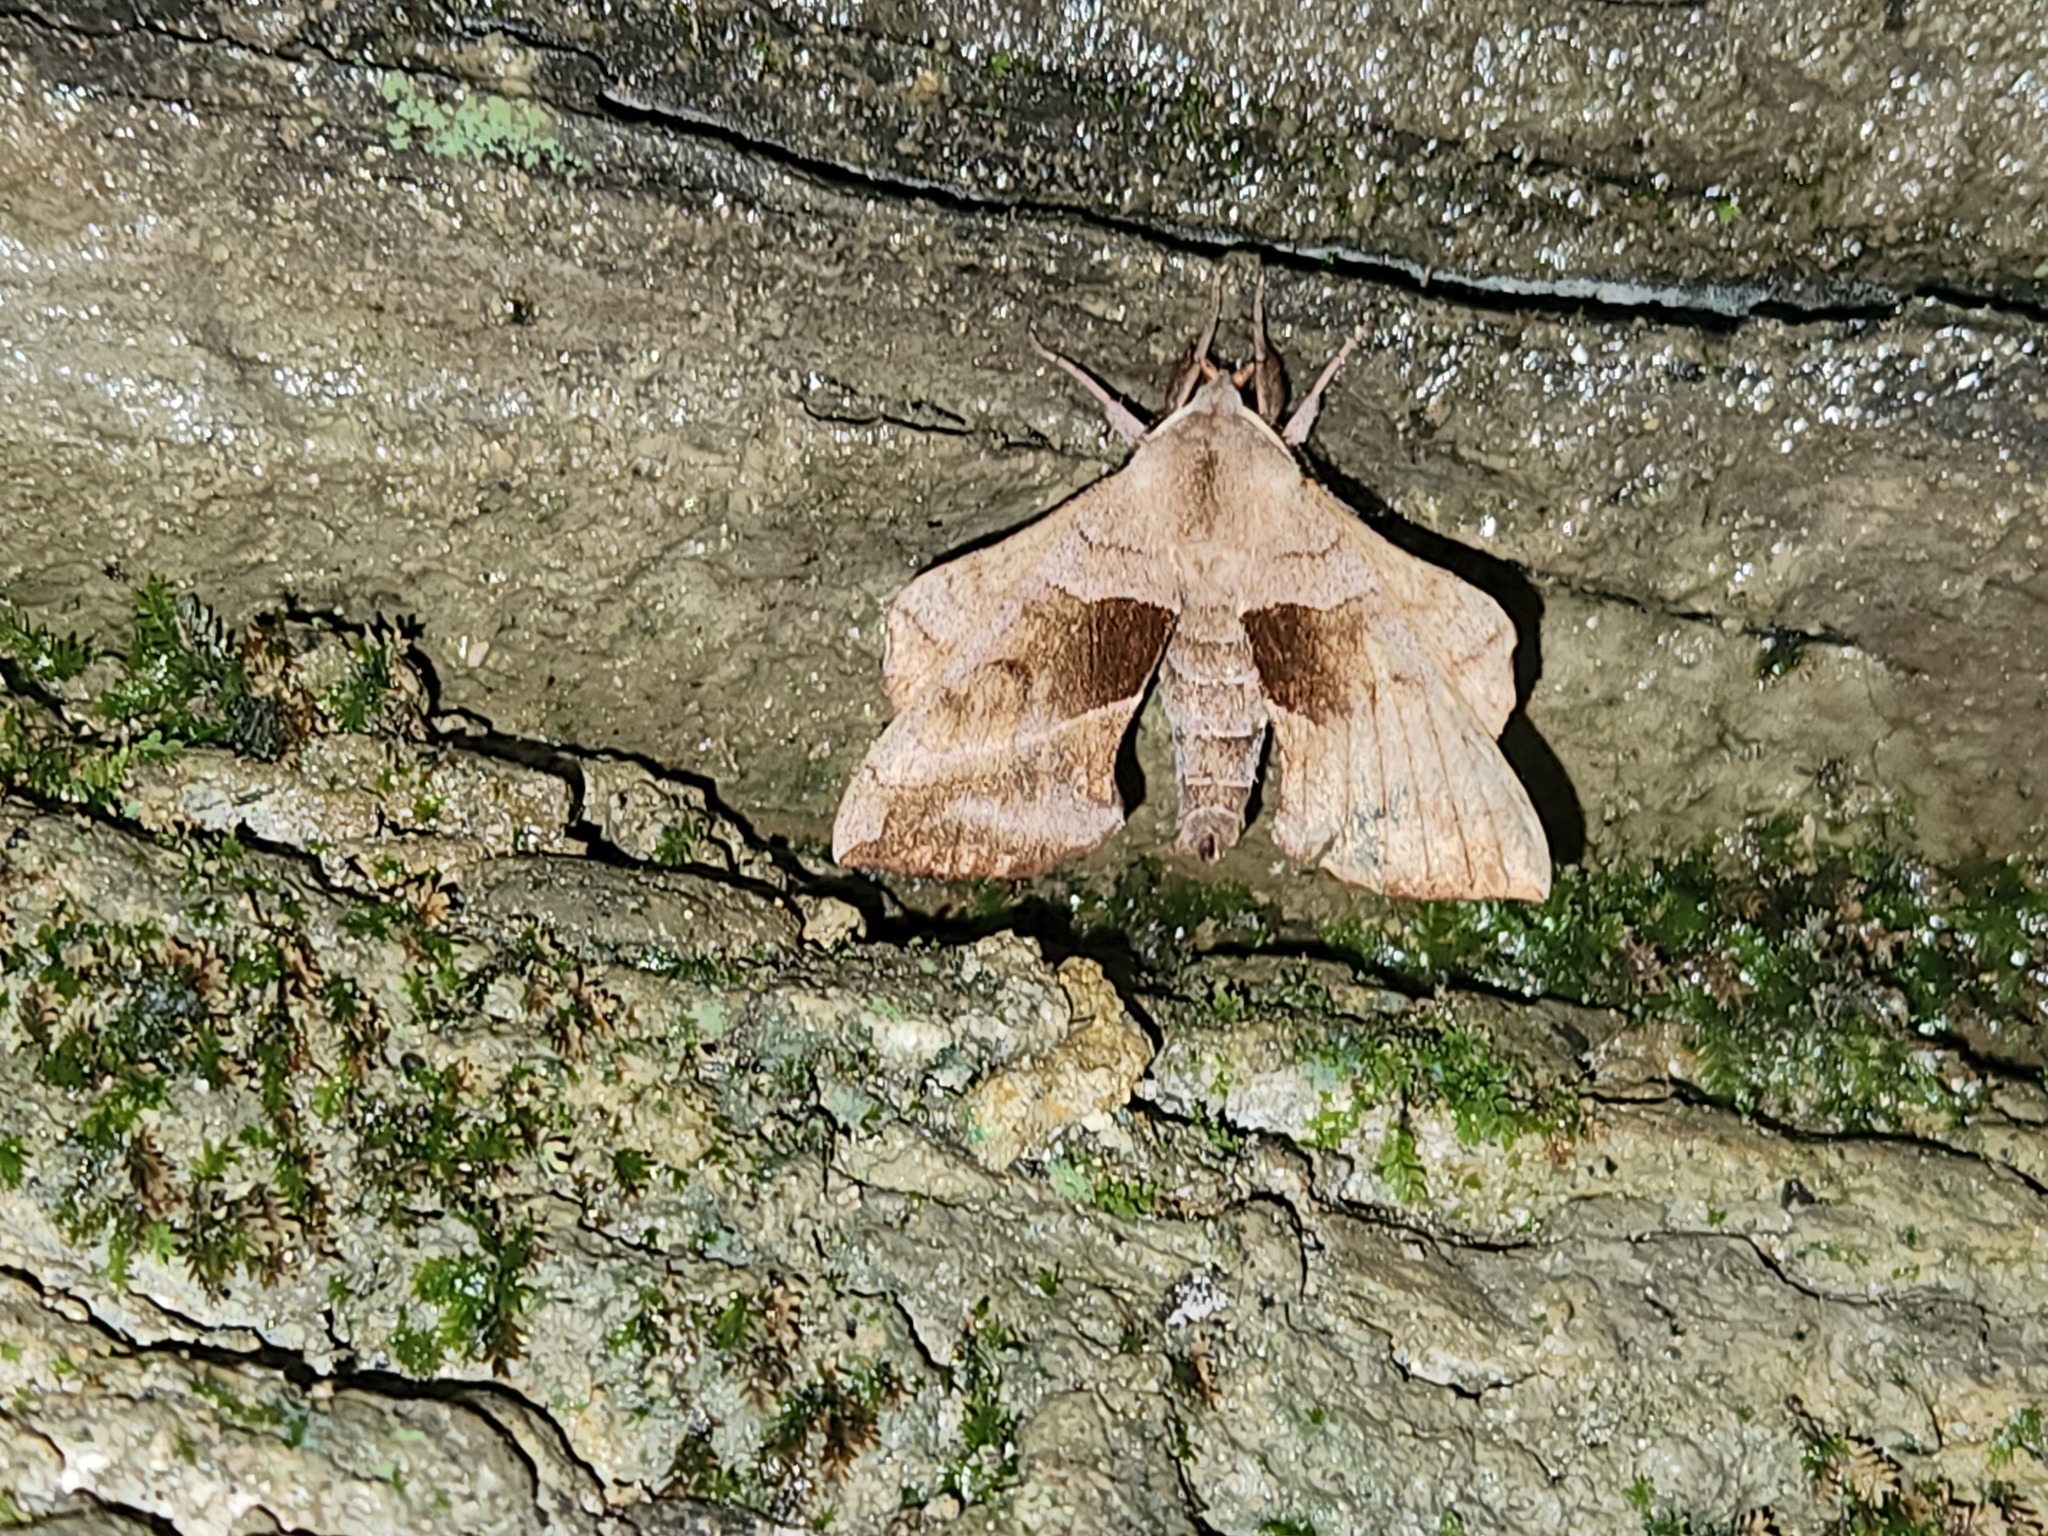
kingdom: Animalia
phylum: Arthropoda
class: Insecta
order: Lepidoptera
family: Sphingidae
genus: Amorpha
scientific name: Amorpha juglandis
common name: Walnut sphinx
